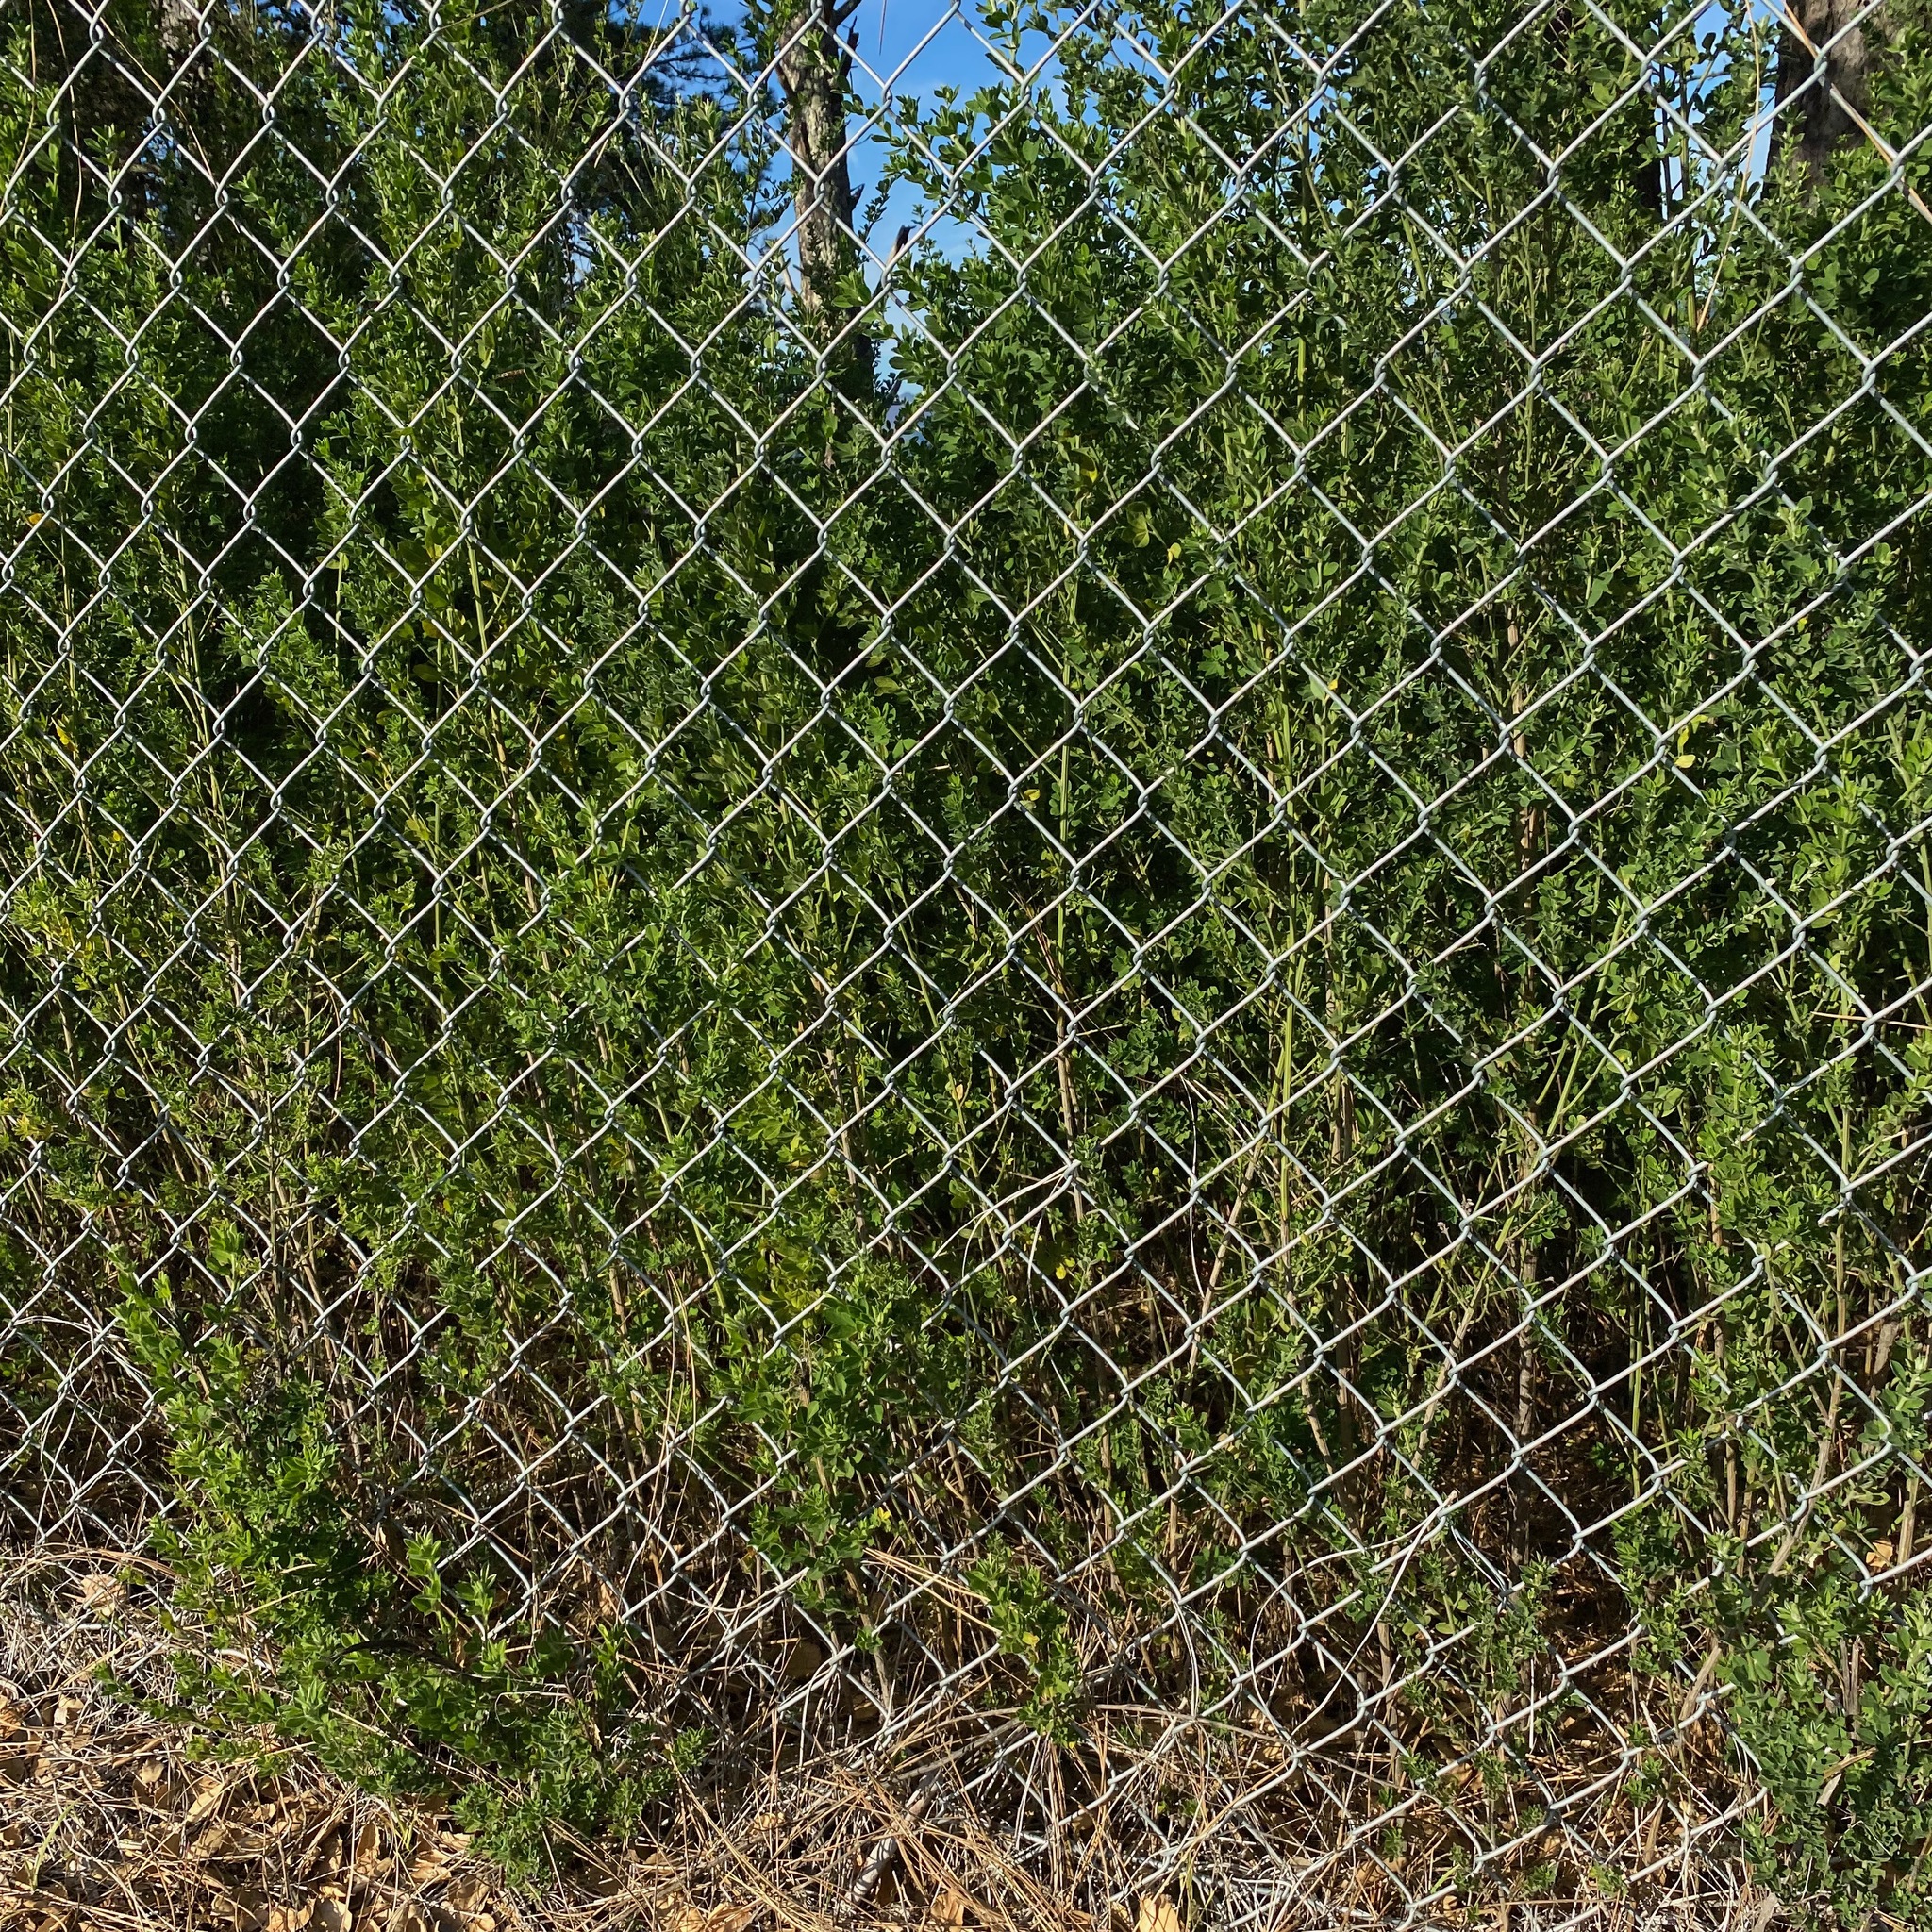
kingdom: Plantae
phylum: Tracheophyta
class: Magnoliopsida
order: Fabales
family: Fabaceae
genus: Genista
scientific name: Genista monspessulana
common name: Montpellier broom
